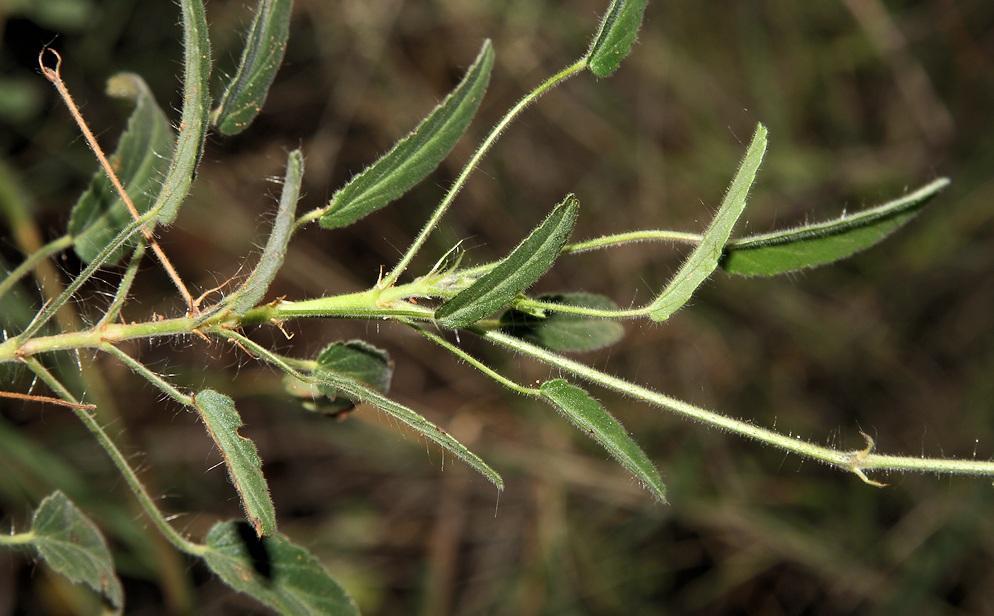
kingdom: Plantae
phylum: Tracheophyta
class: Magnoliopsida
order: Geraniales
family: Geraniaceae
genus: Monsonia
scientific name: Monsonia glauca
